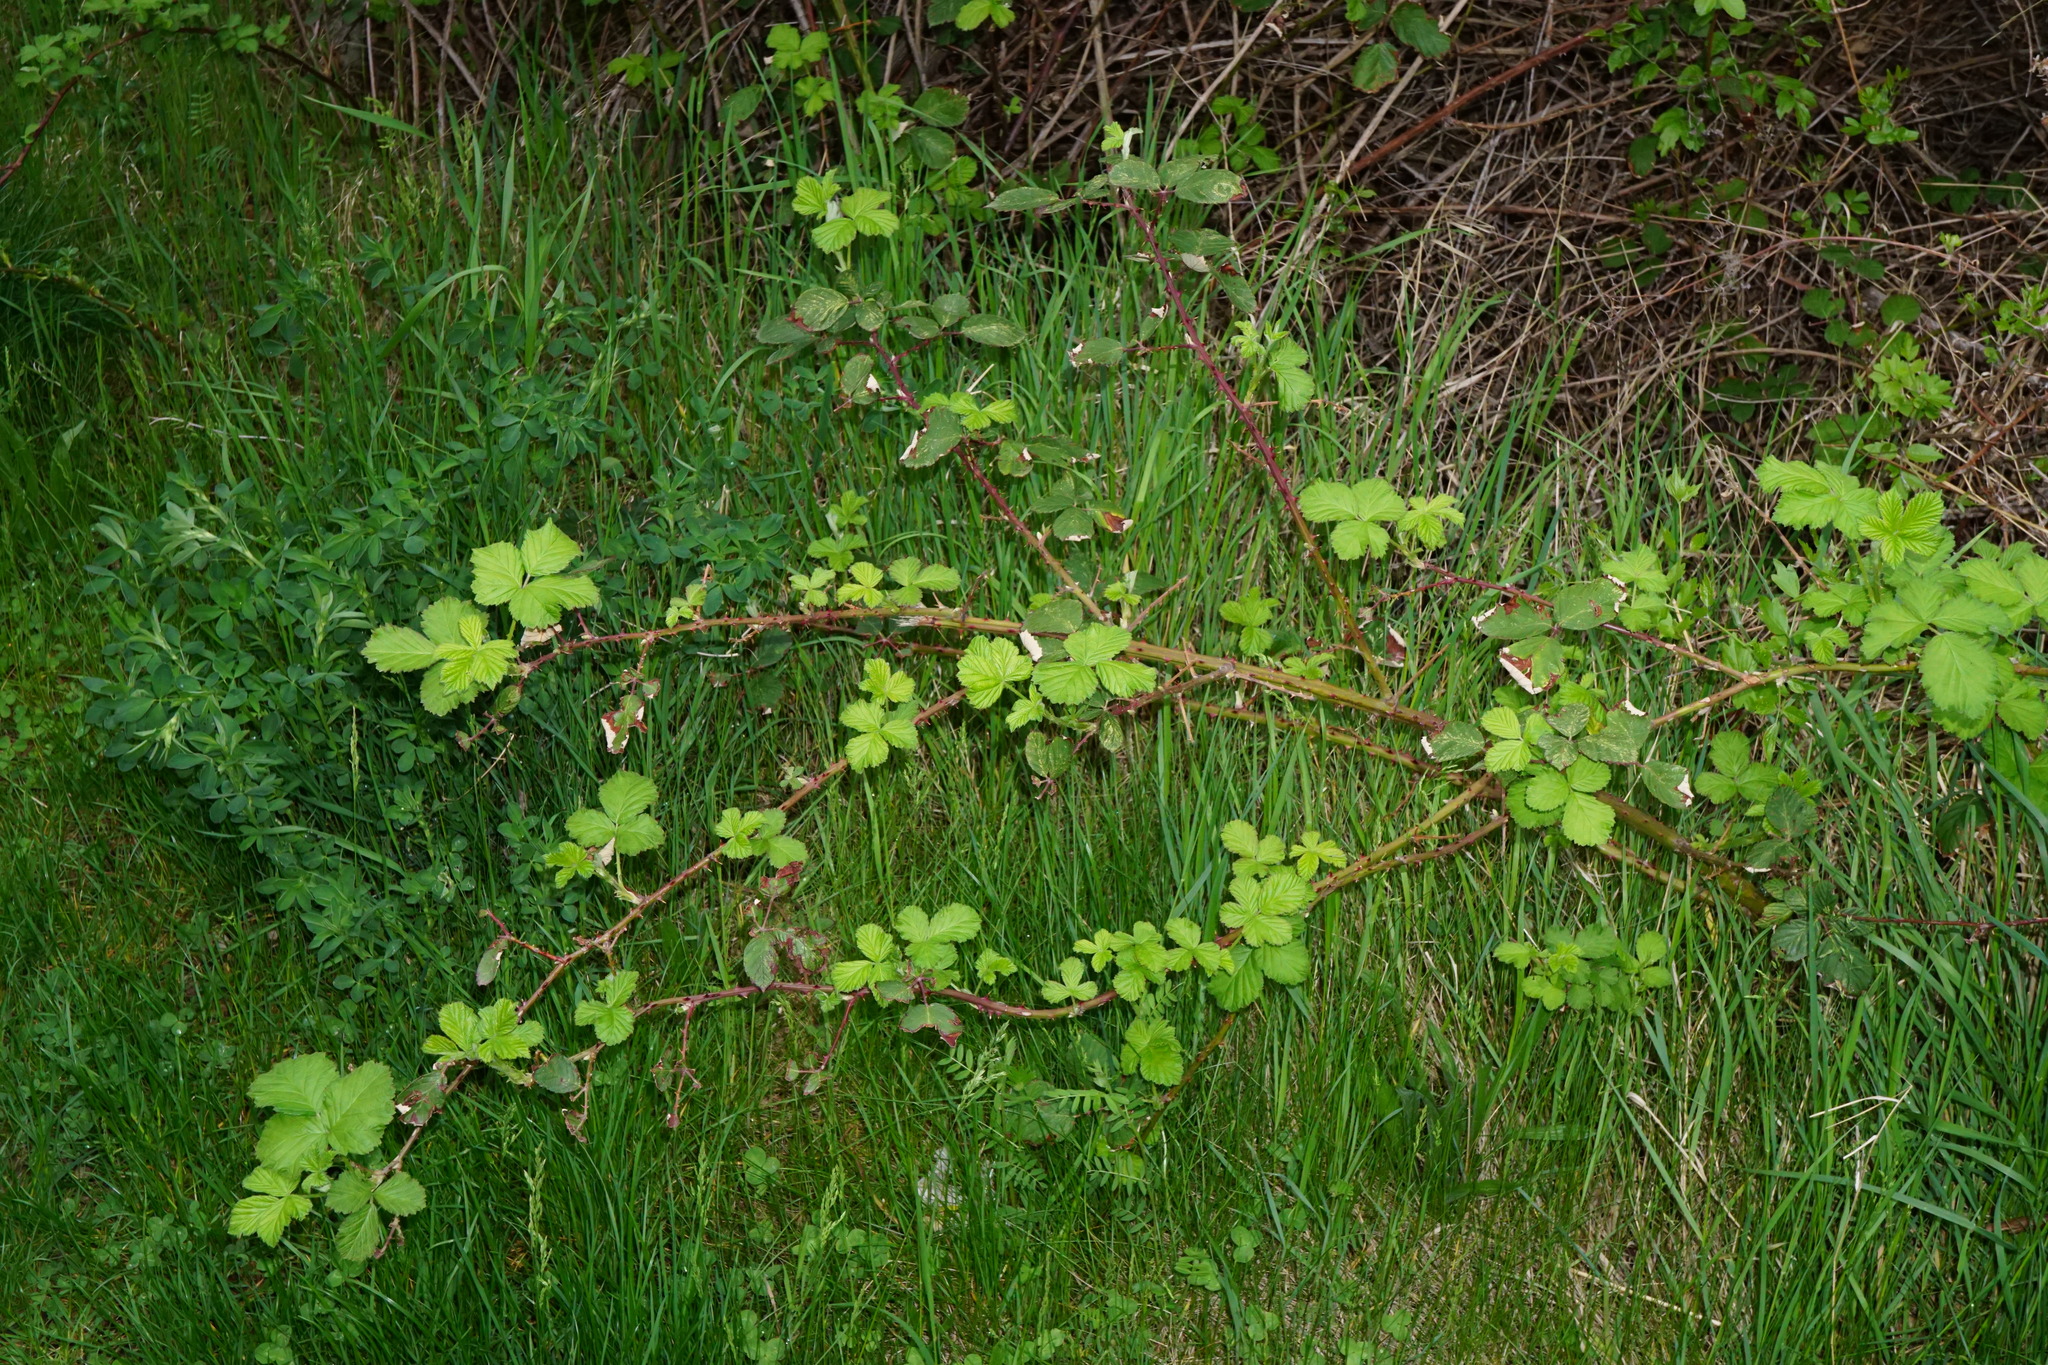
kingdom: Plantae
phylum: Tracheophyta
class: Magnoliopsida
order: Rosales
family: Rosaceae
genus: Rubus
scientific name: Rubus
